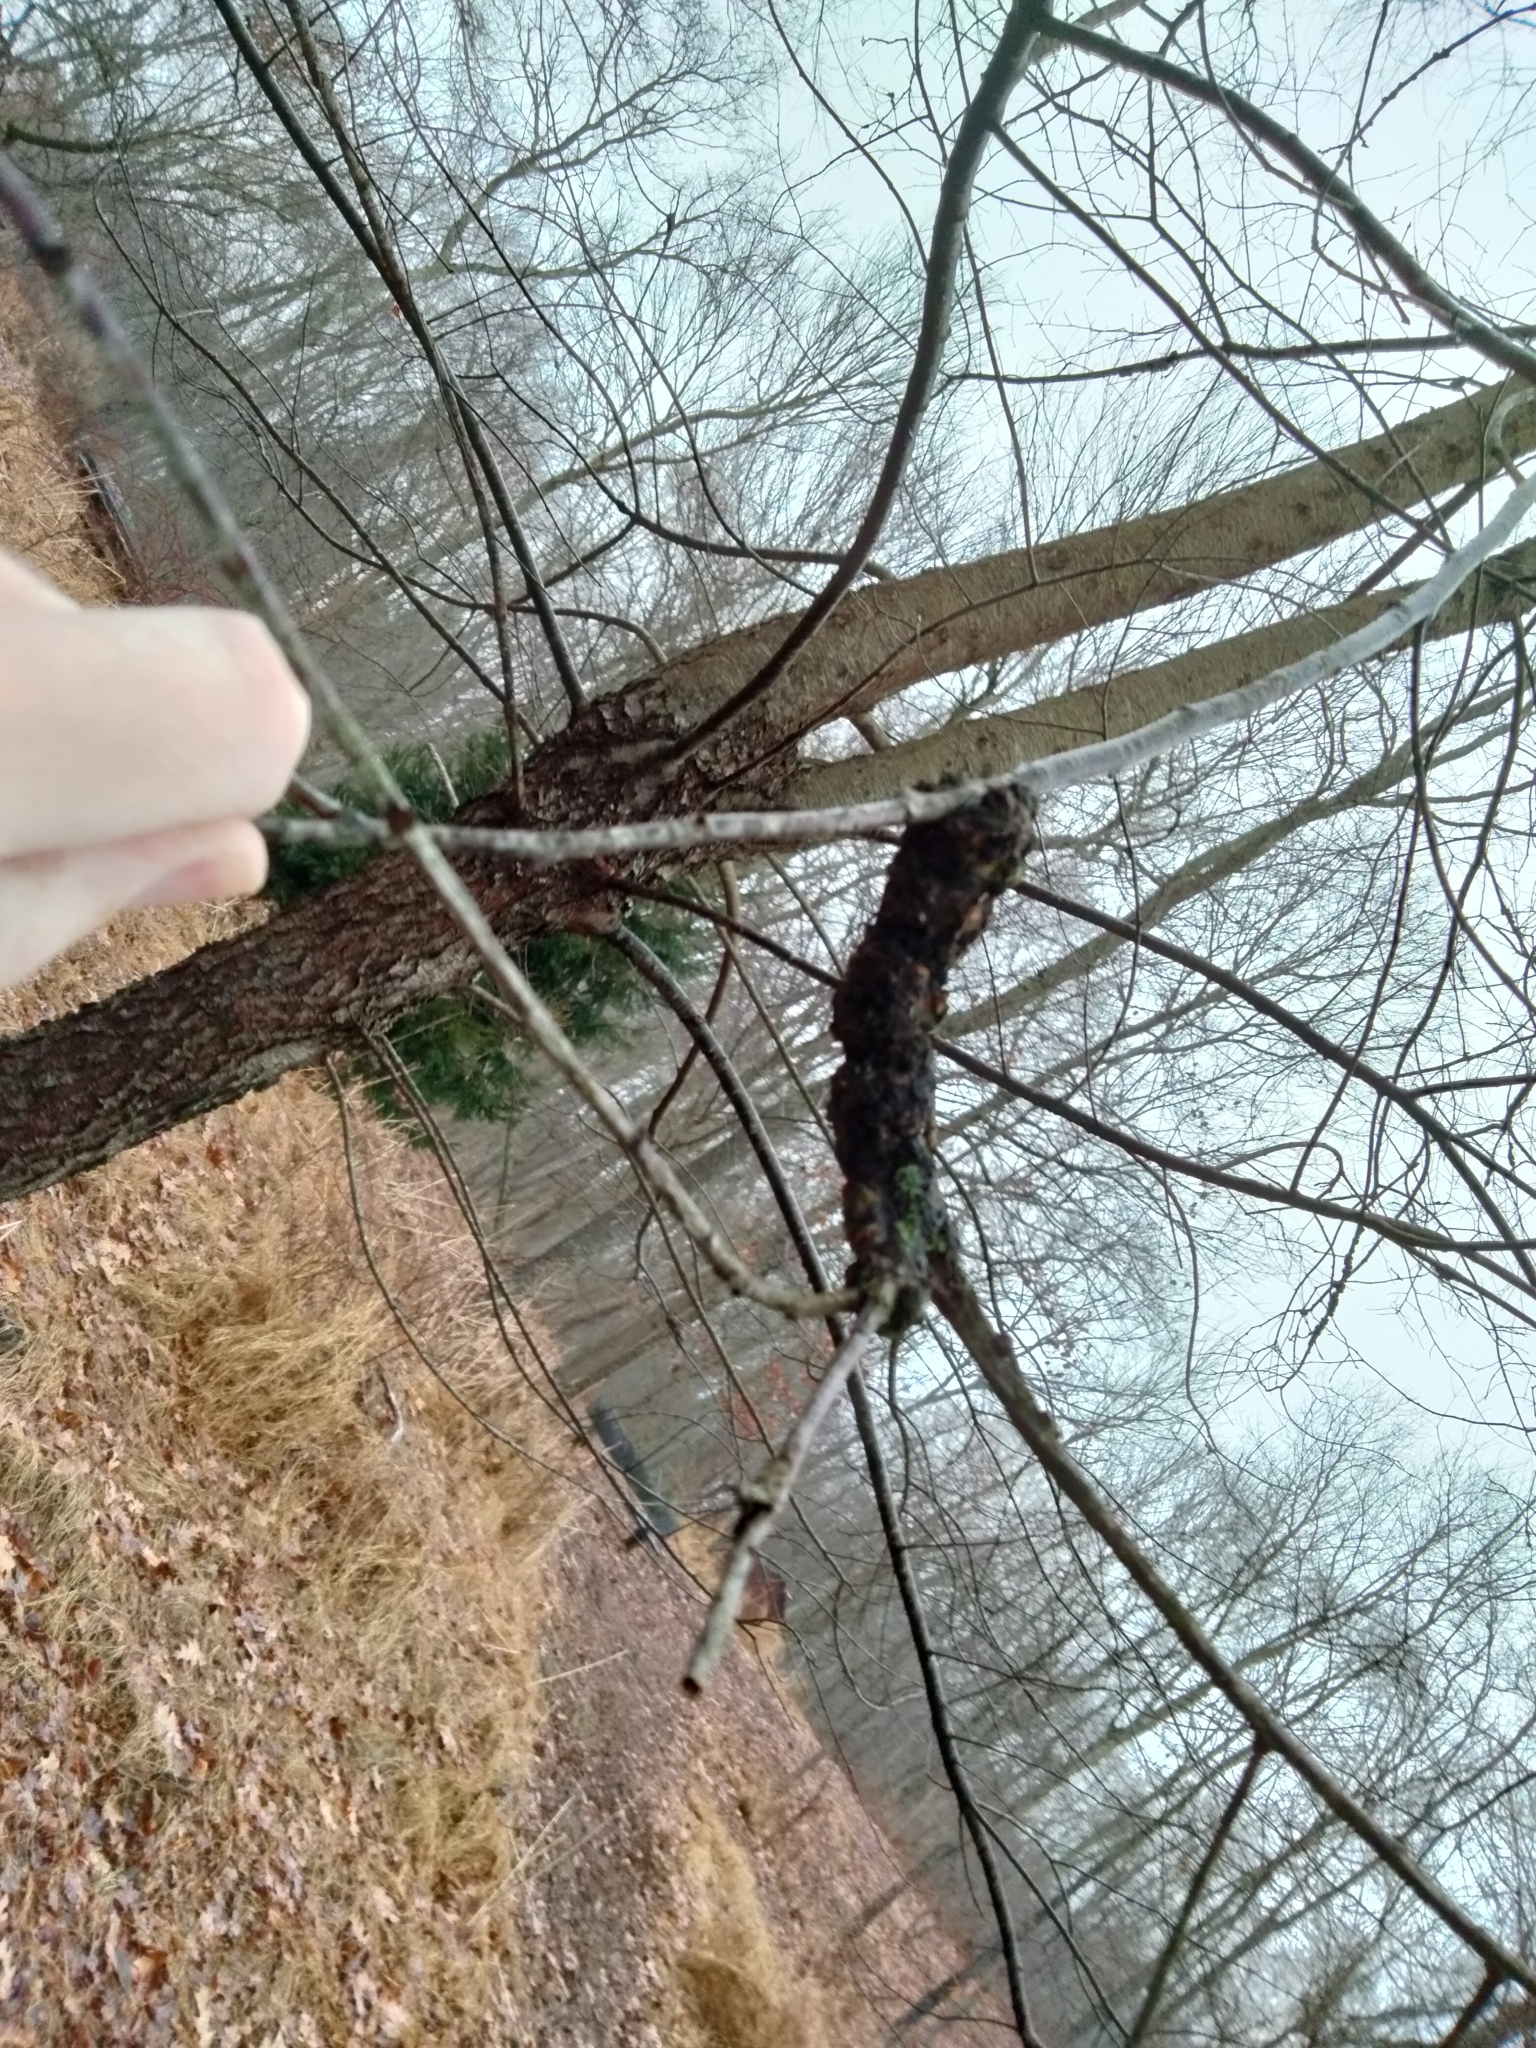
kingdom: Fungi
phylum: Ascomycota
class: Dothideomycetes
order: Venturiales
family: Venturiaceae
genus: Apiosporina
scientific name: Apiosporina morbosa
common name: Black knot
